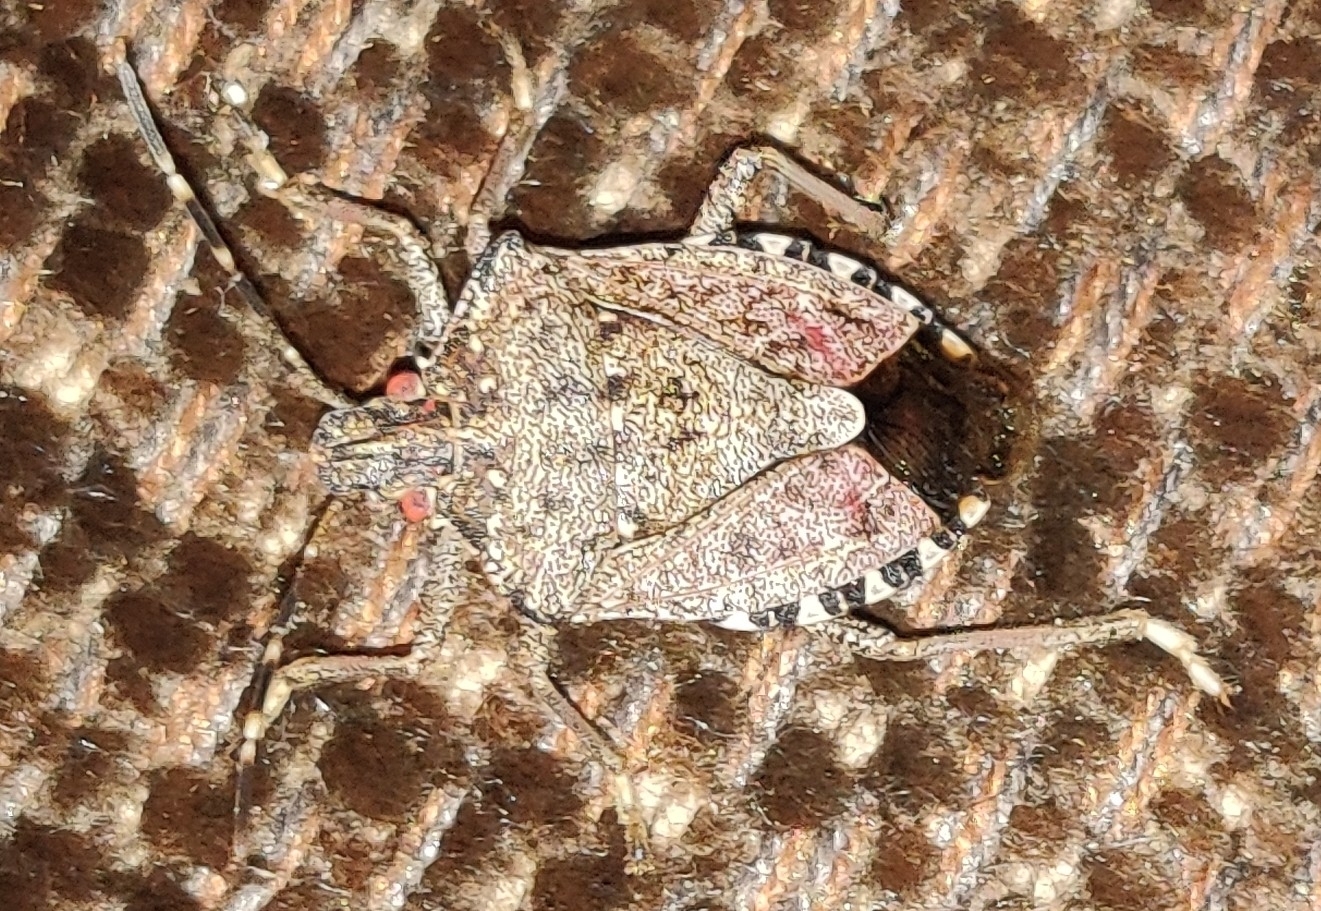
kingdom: Animalia
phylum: Arthropoda
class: Insecta
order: Hemiptera
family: Pentatomidae
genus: Halyomorpha
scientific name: Halyomorpha halys
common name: Brown marmorated stink bug
